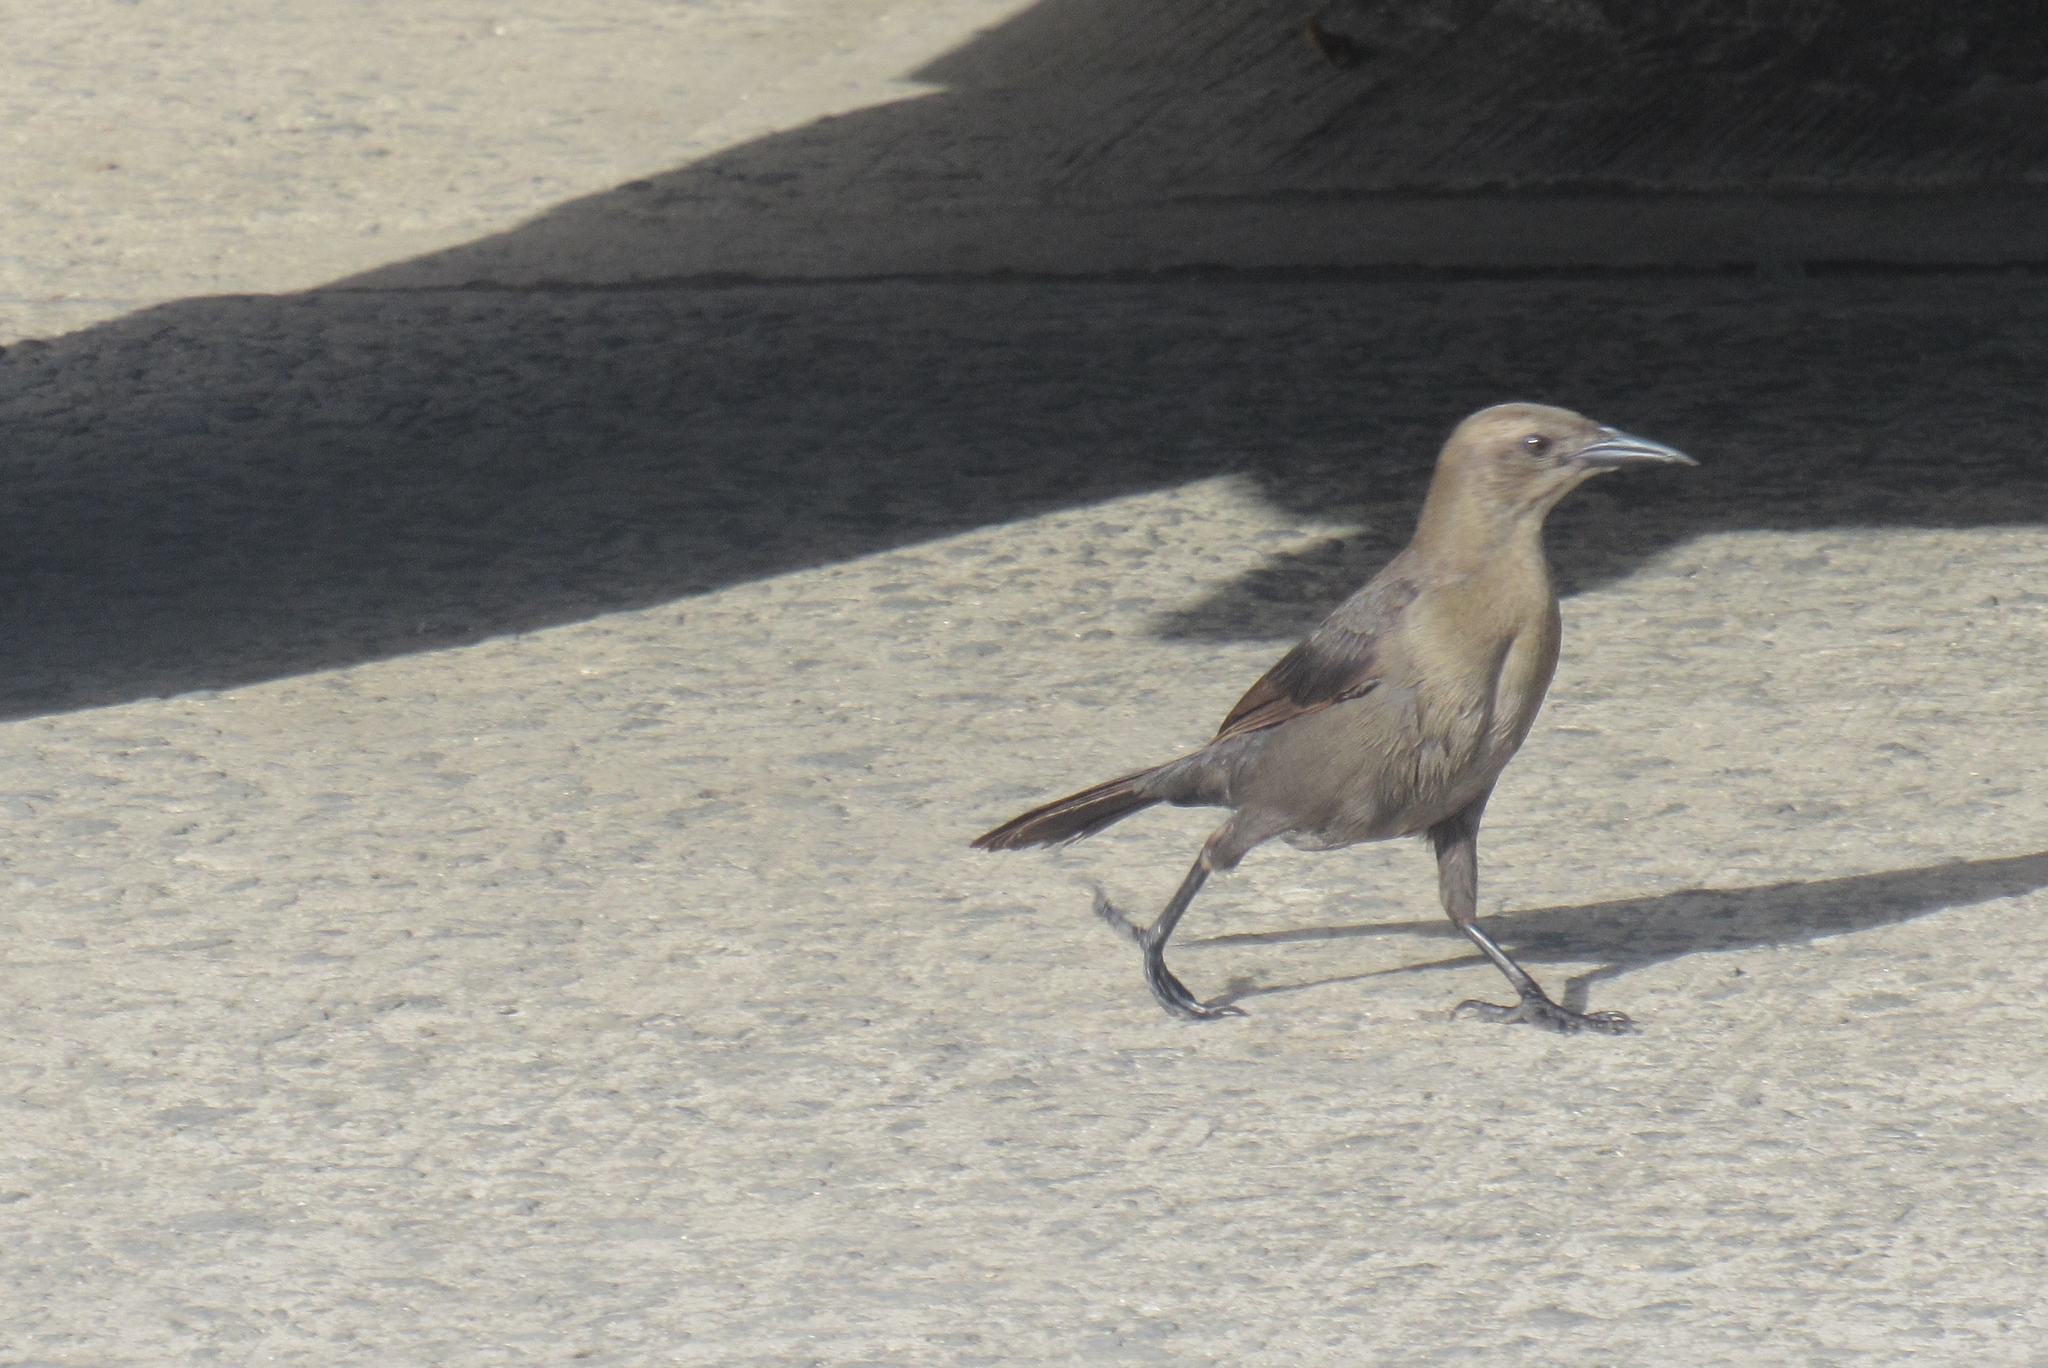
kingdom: Animalia
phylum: Chordata
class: Aves
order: Passeriformes
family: Icteridae
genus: Quiscalus
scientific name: Quiscalus lugubris
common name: Carib grackle
